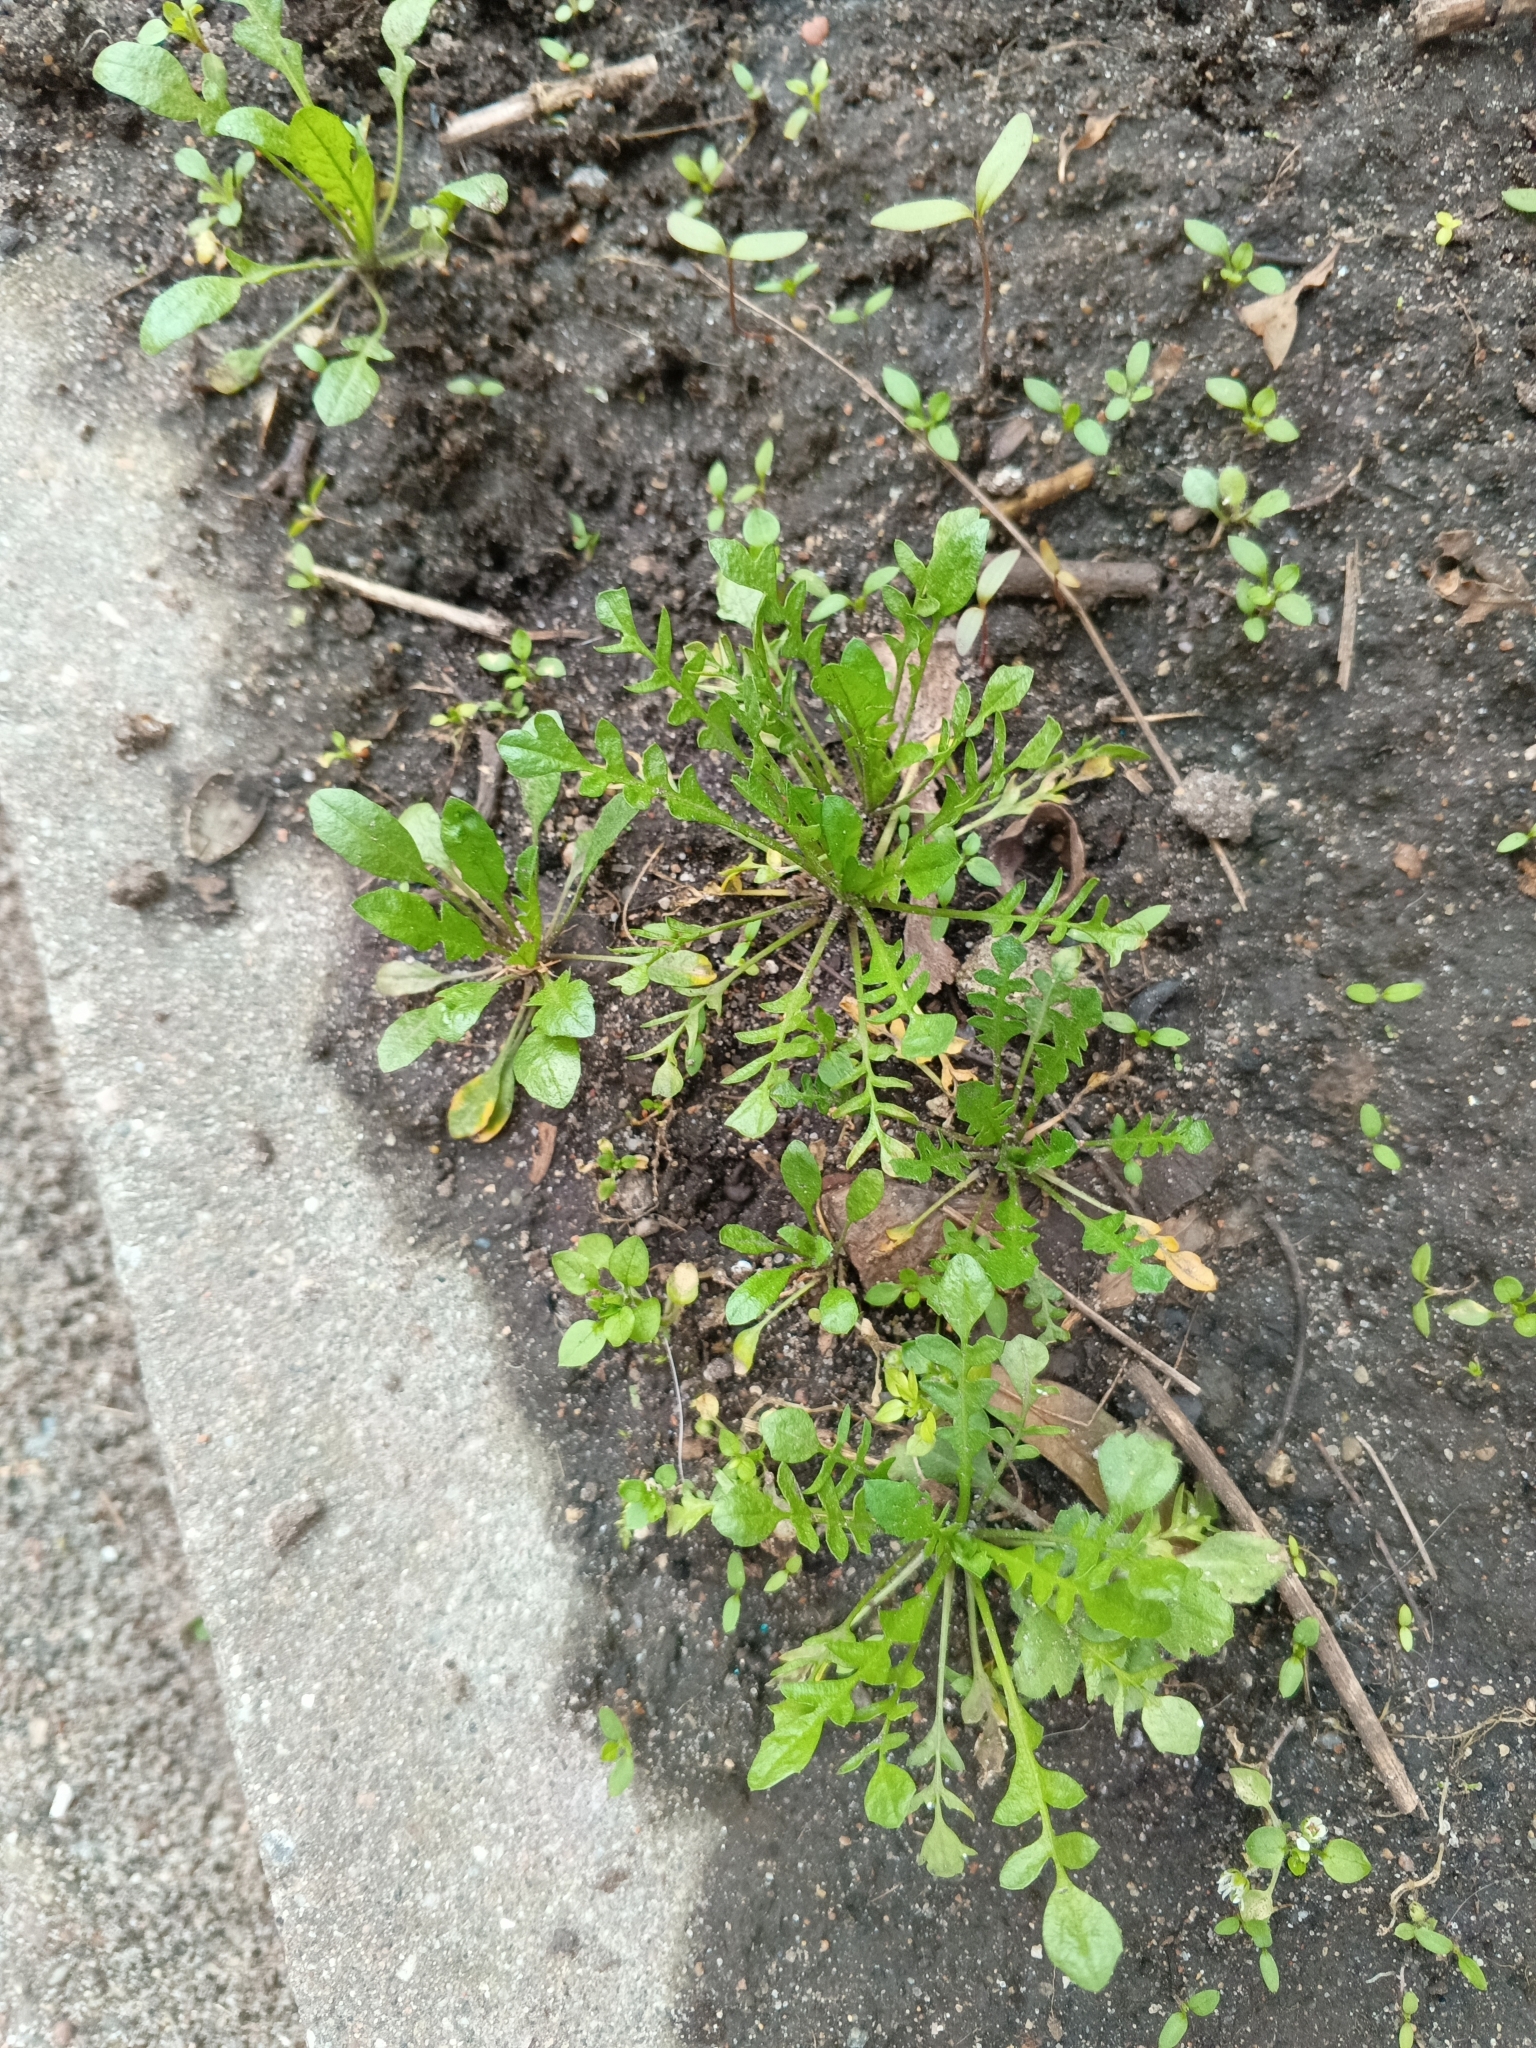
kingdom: Plantae
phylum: Tracheophyta
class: Magnoliopsida
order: Brassicales
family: Brassicaceae
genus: Capsella
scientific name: Capsella bursa-pastoris
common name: Shepherd's purse
